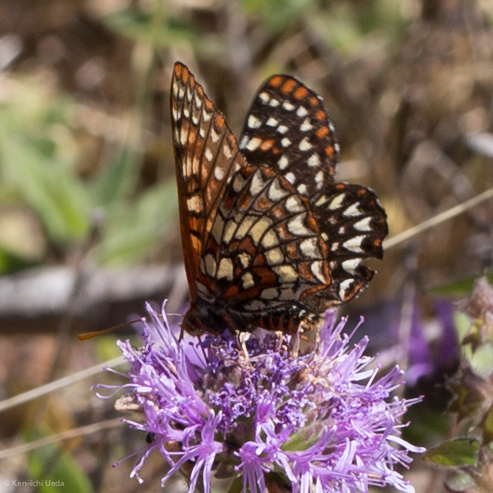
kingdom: Animalia
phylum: Arthropoda
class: Insecta
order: Lepidoptera
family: Nymphalidae
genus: Occidryas
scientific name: Occidryas chalcedona
